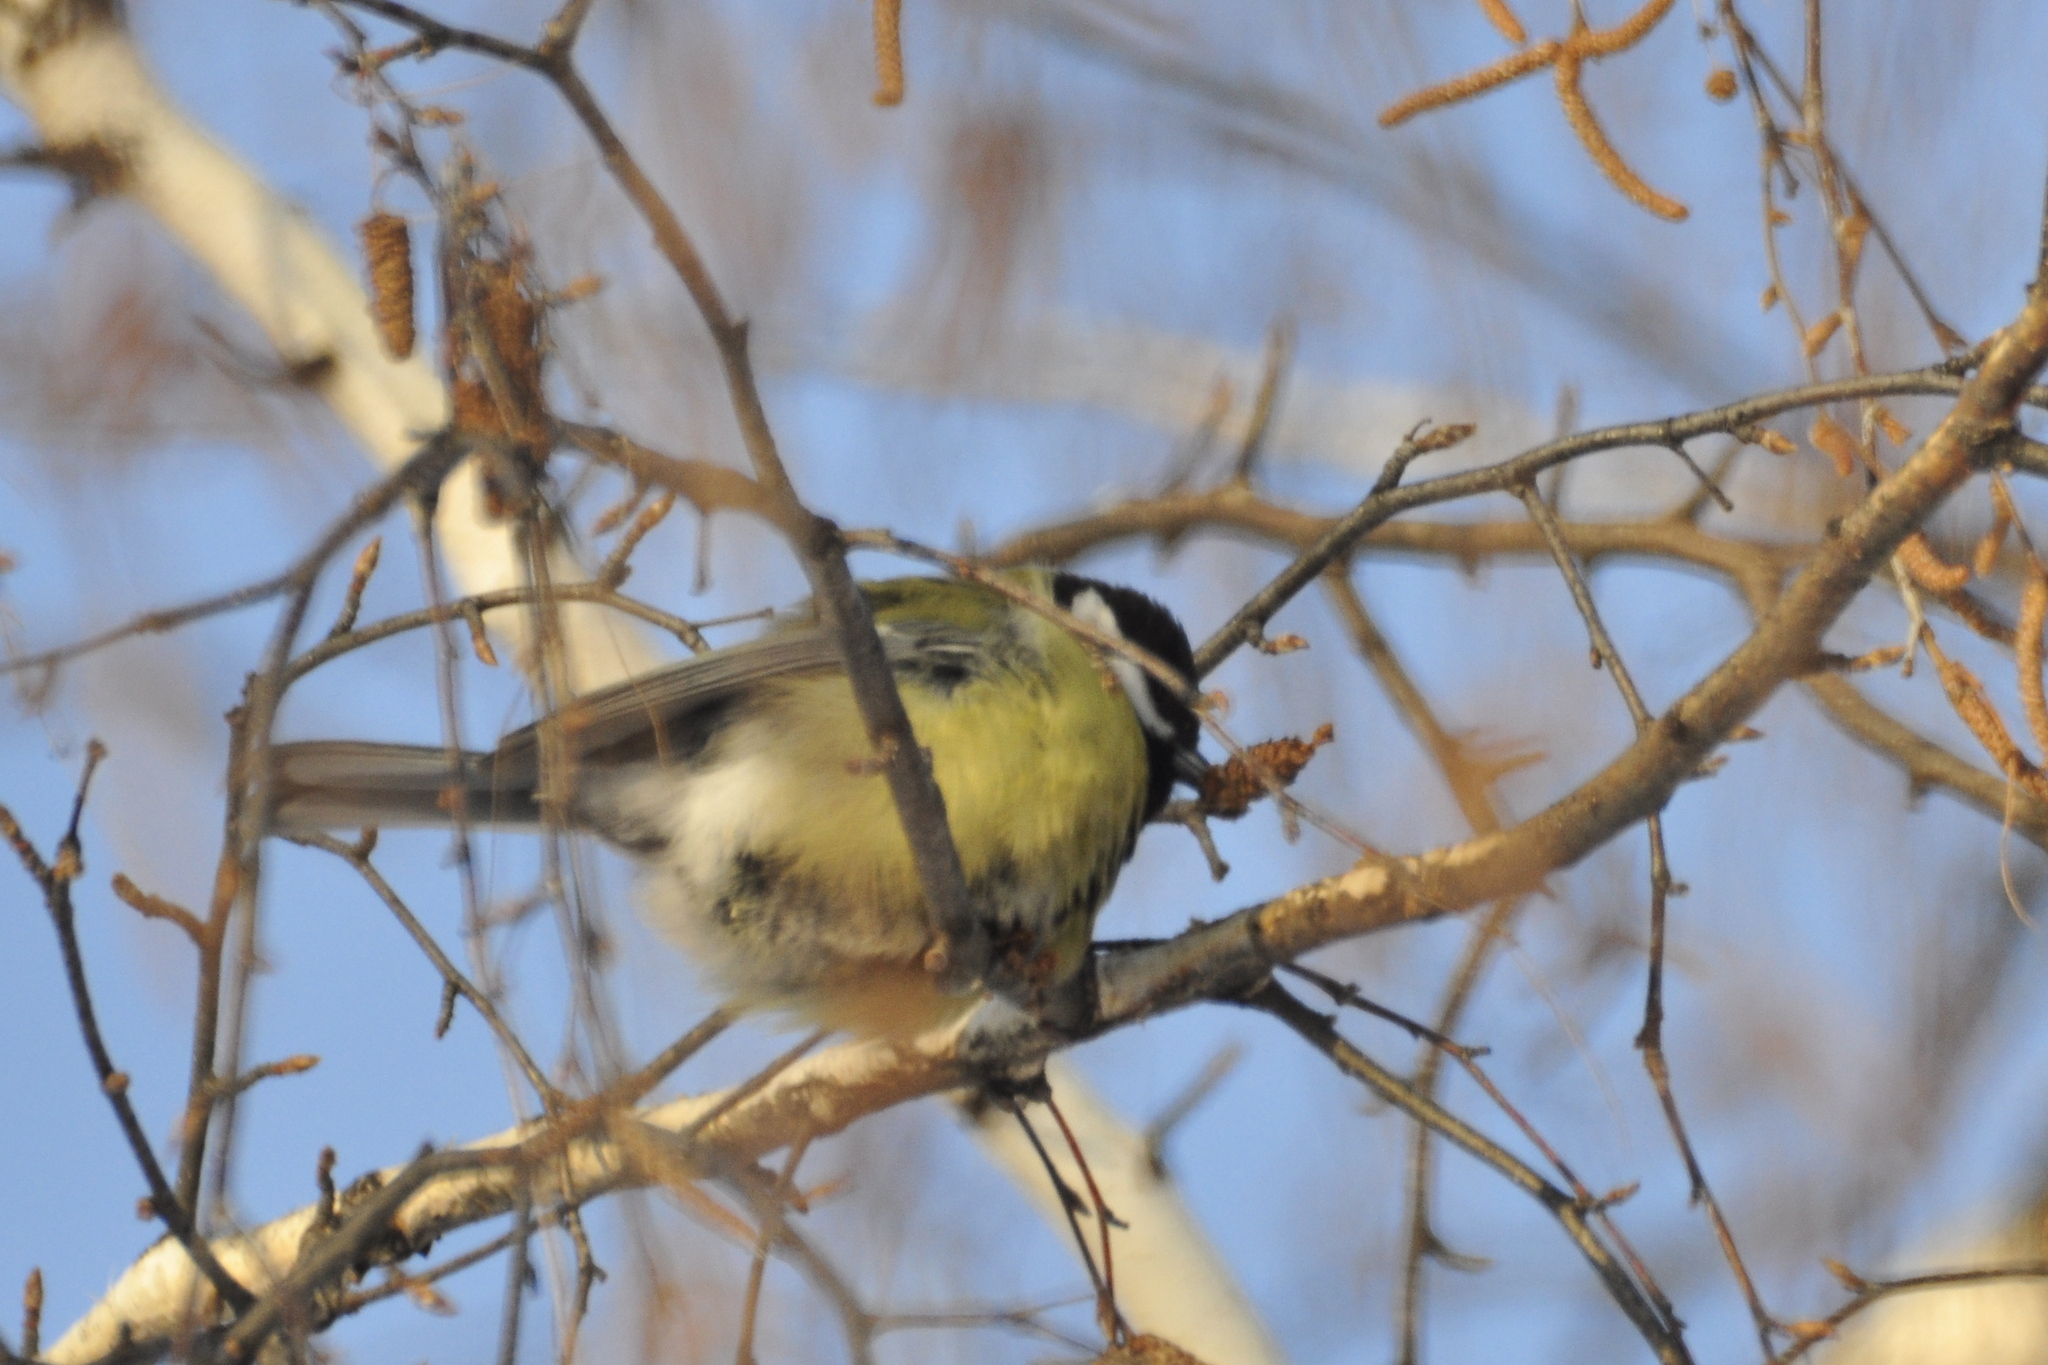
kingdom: Animalia
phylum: Chordata
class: Aves
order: Passeriformes
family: Paridae
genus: Parus
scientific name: Parus major
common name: Great tit
